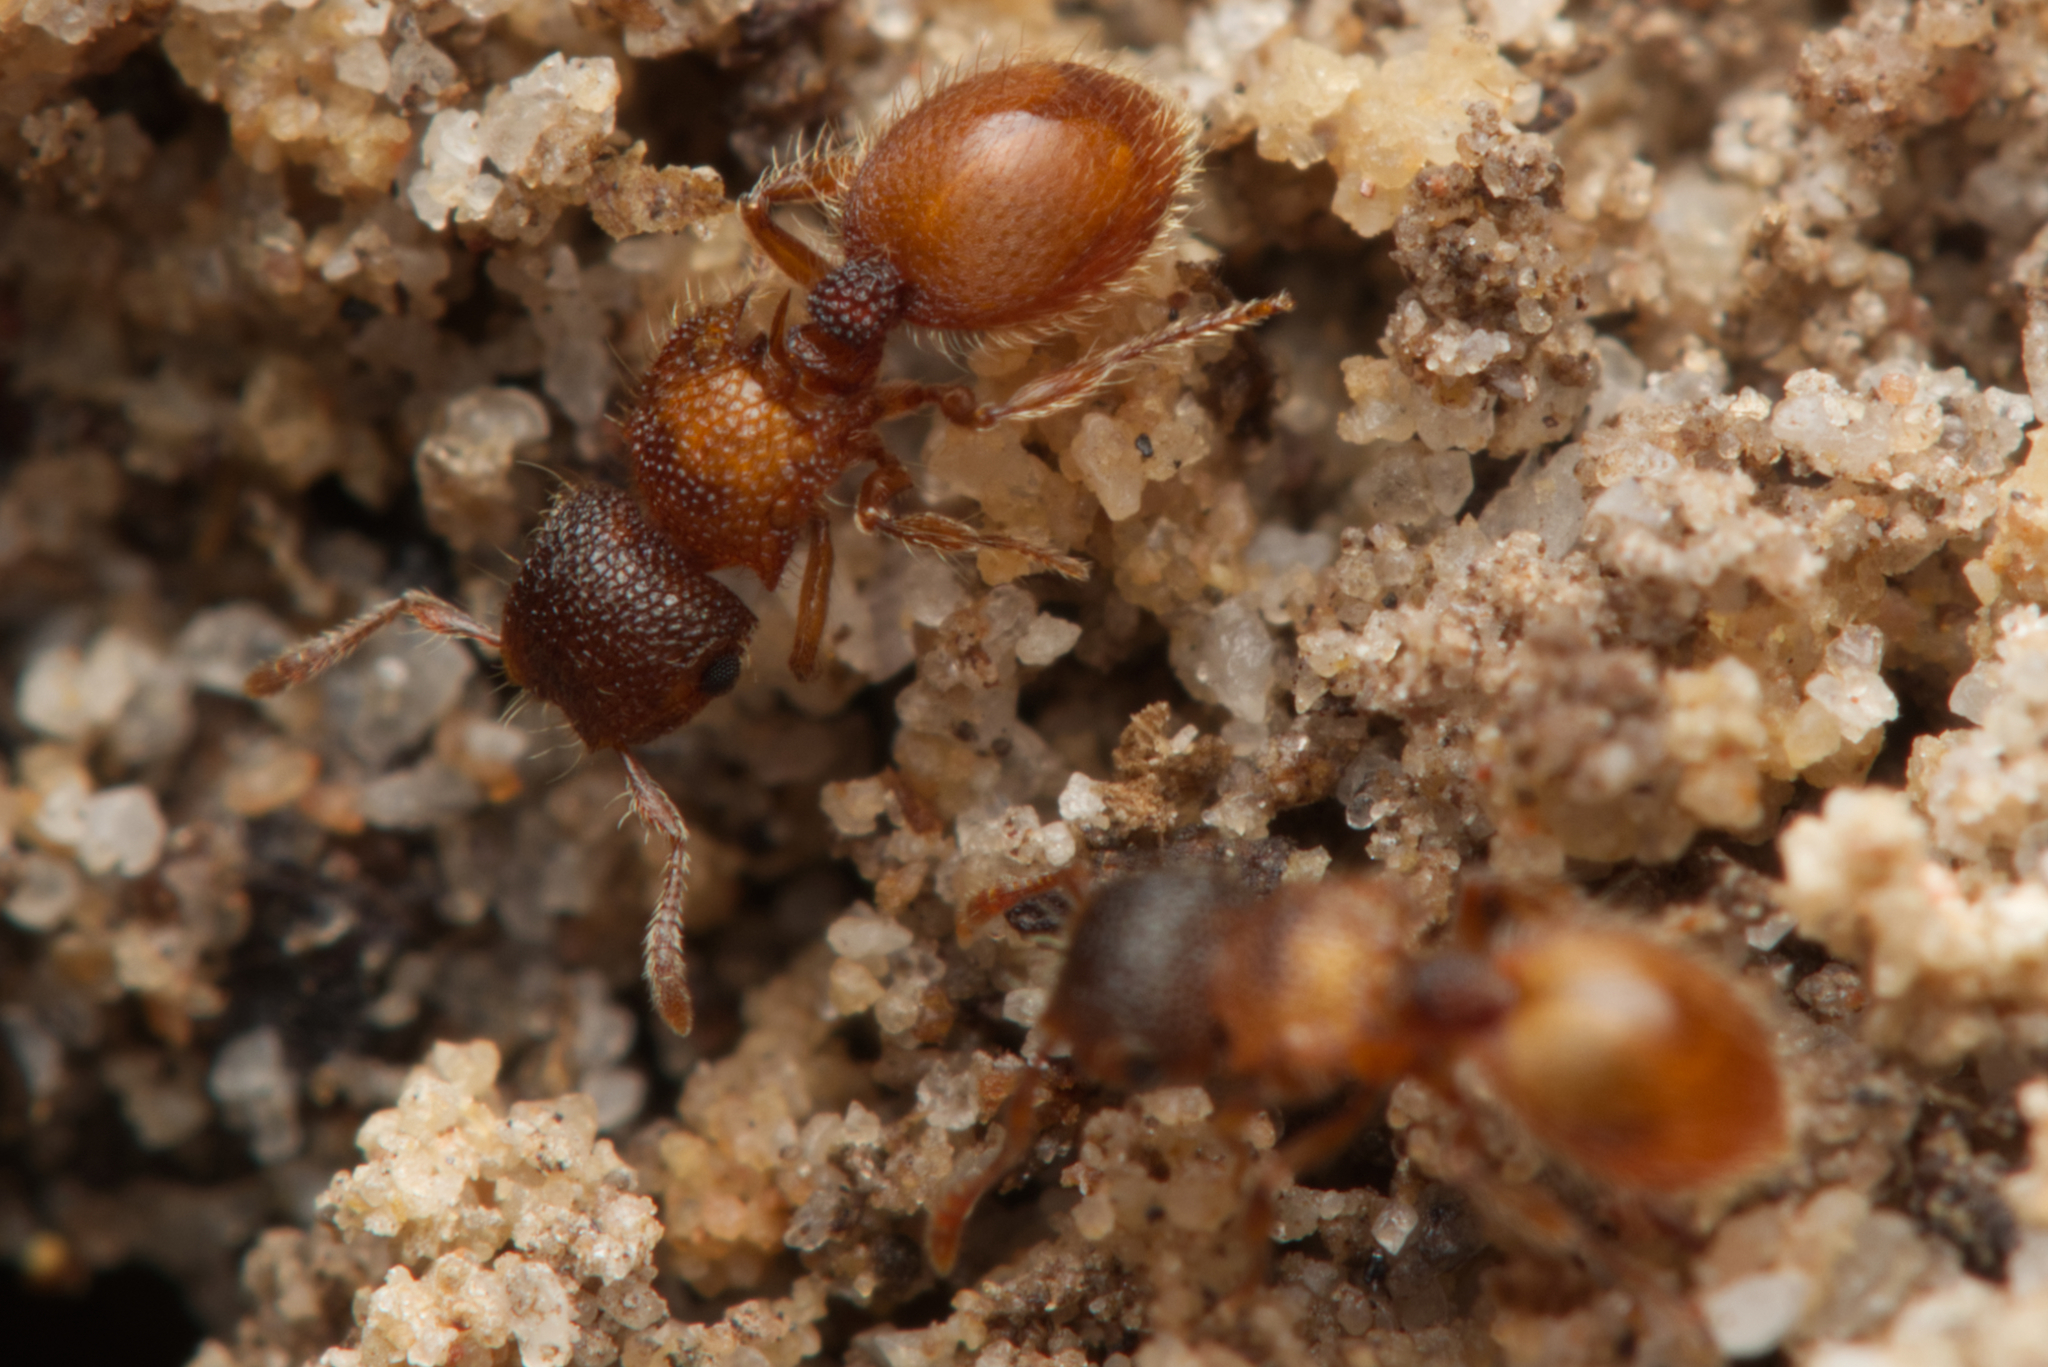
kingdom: Animalia
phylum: Arthropoda
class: Insecta
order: Hymenoptera
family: Formicidae
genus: Meranoplus
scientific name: Meranoplus froggatti
